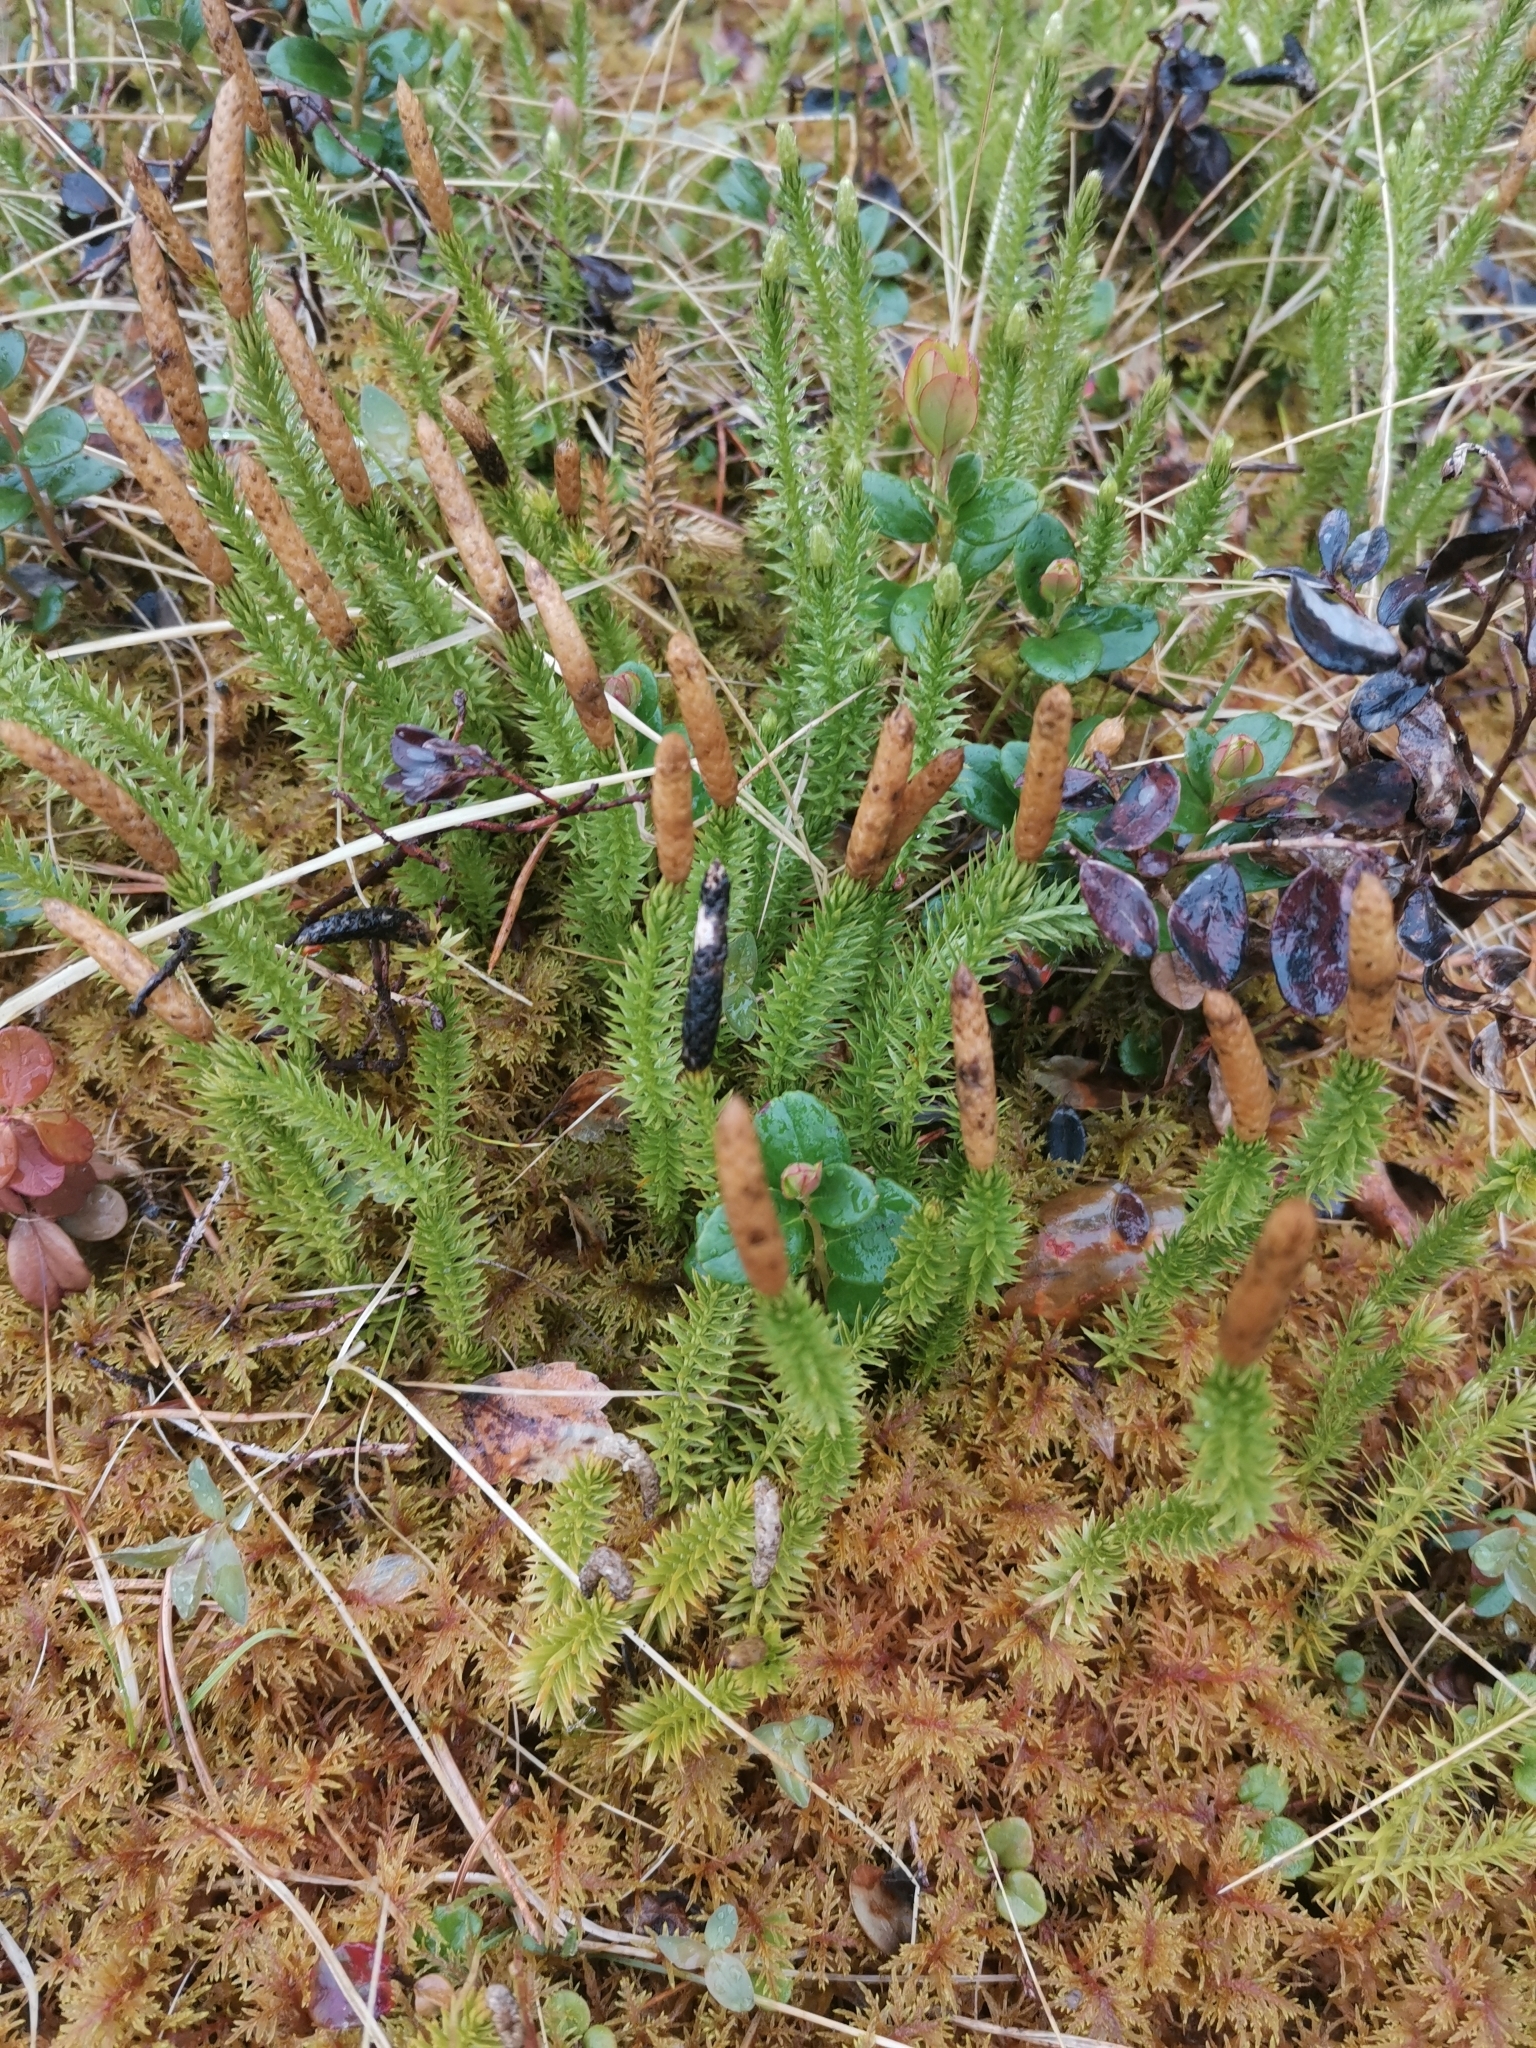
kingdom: Plantae
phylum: Tracheophyta
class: Lycopodiopsida
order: Lycopodiales
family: Lycopodiaceae
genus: Spinulum
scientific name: Spinulum annotinum
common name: Interrupted club-moss
